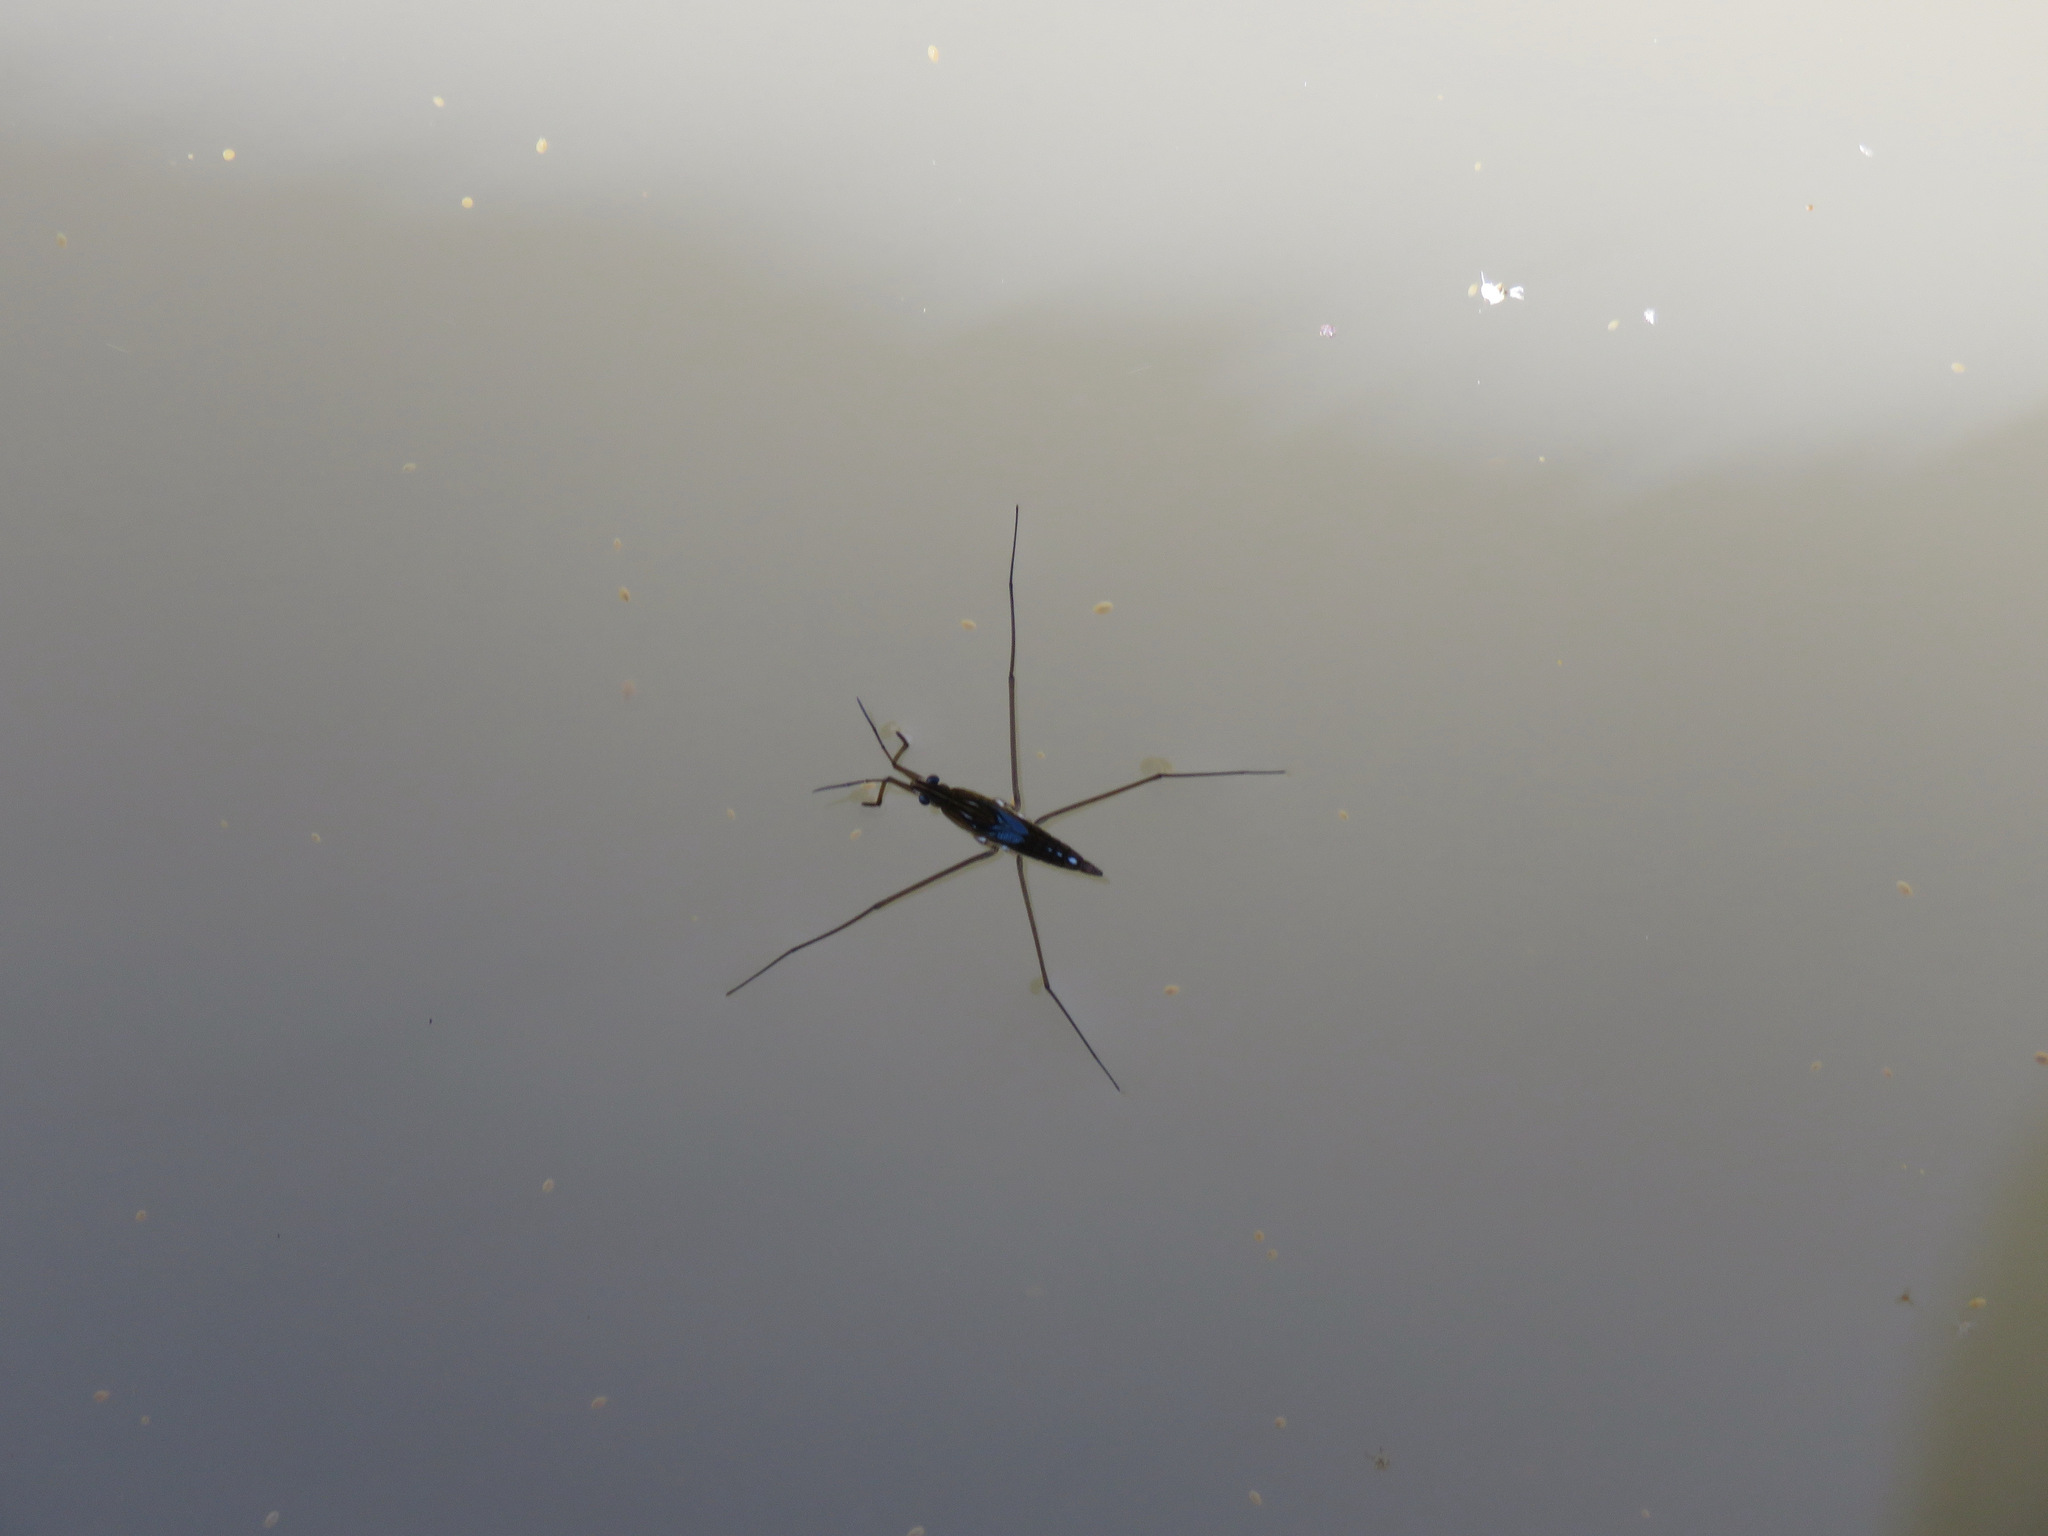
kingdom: Animalia
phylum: Arthropoda
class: Insecta
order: Hemiptera
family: Gerridae
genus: Limnoporus
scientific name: Limnoporus
